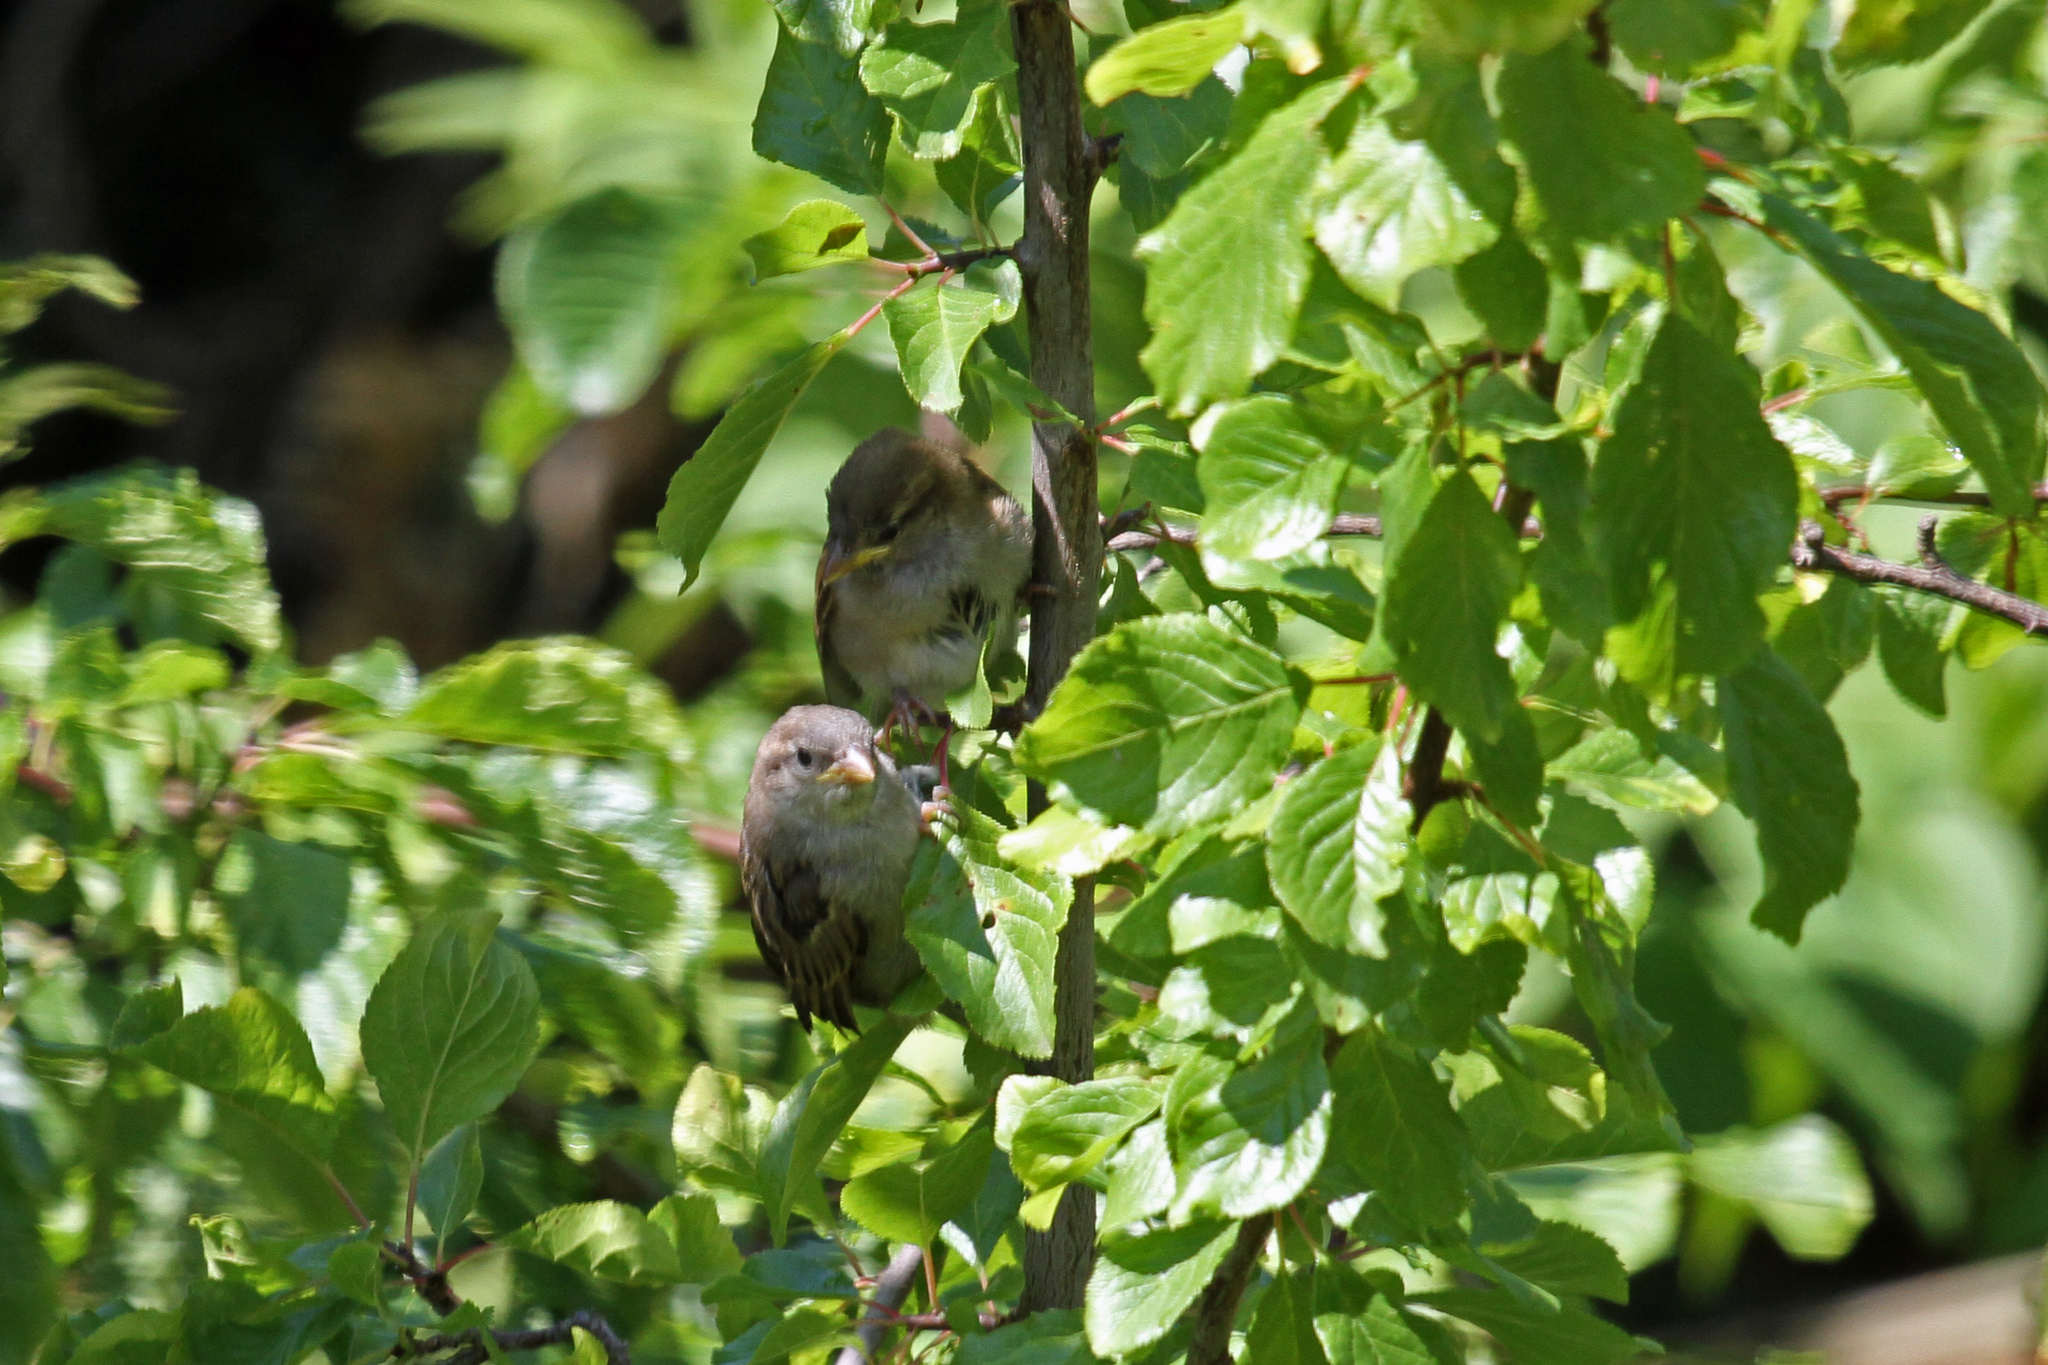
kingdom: Animalia
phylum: Chordata
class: Aves
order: Passeriformes
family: Passeridae
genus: Passer
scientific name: Passer domesticus
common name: House sparrow
